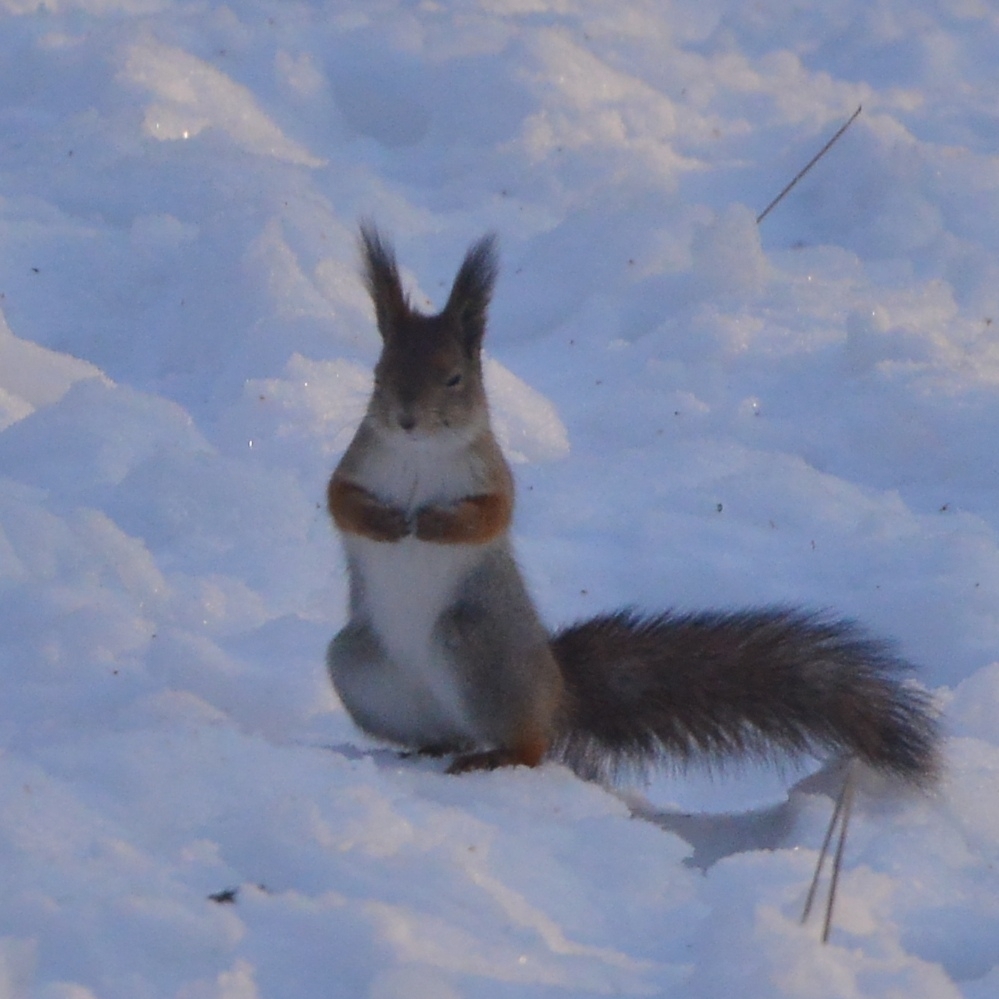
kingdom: Animalia
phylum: Chordata
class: Mammalia
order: Rodentia
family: Sciuridae
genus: Sciurus
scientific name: Sciurus vulgaris
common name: Eurasian red squirrel
